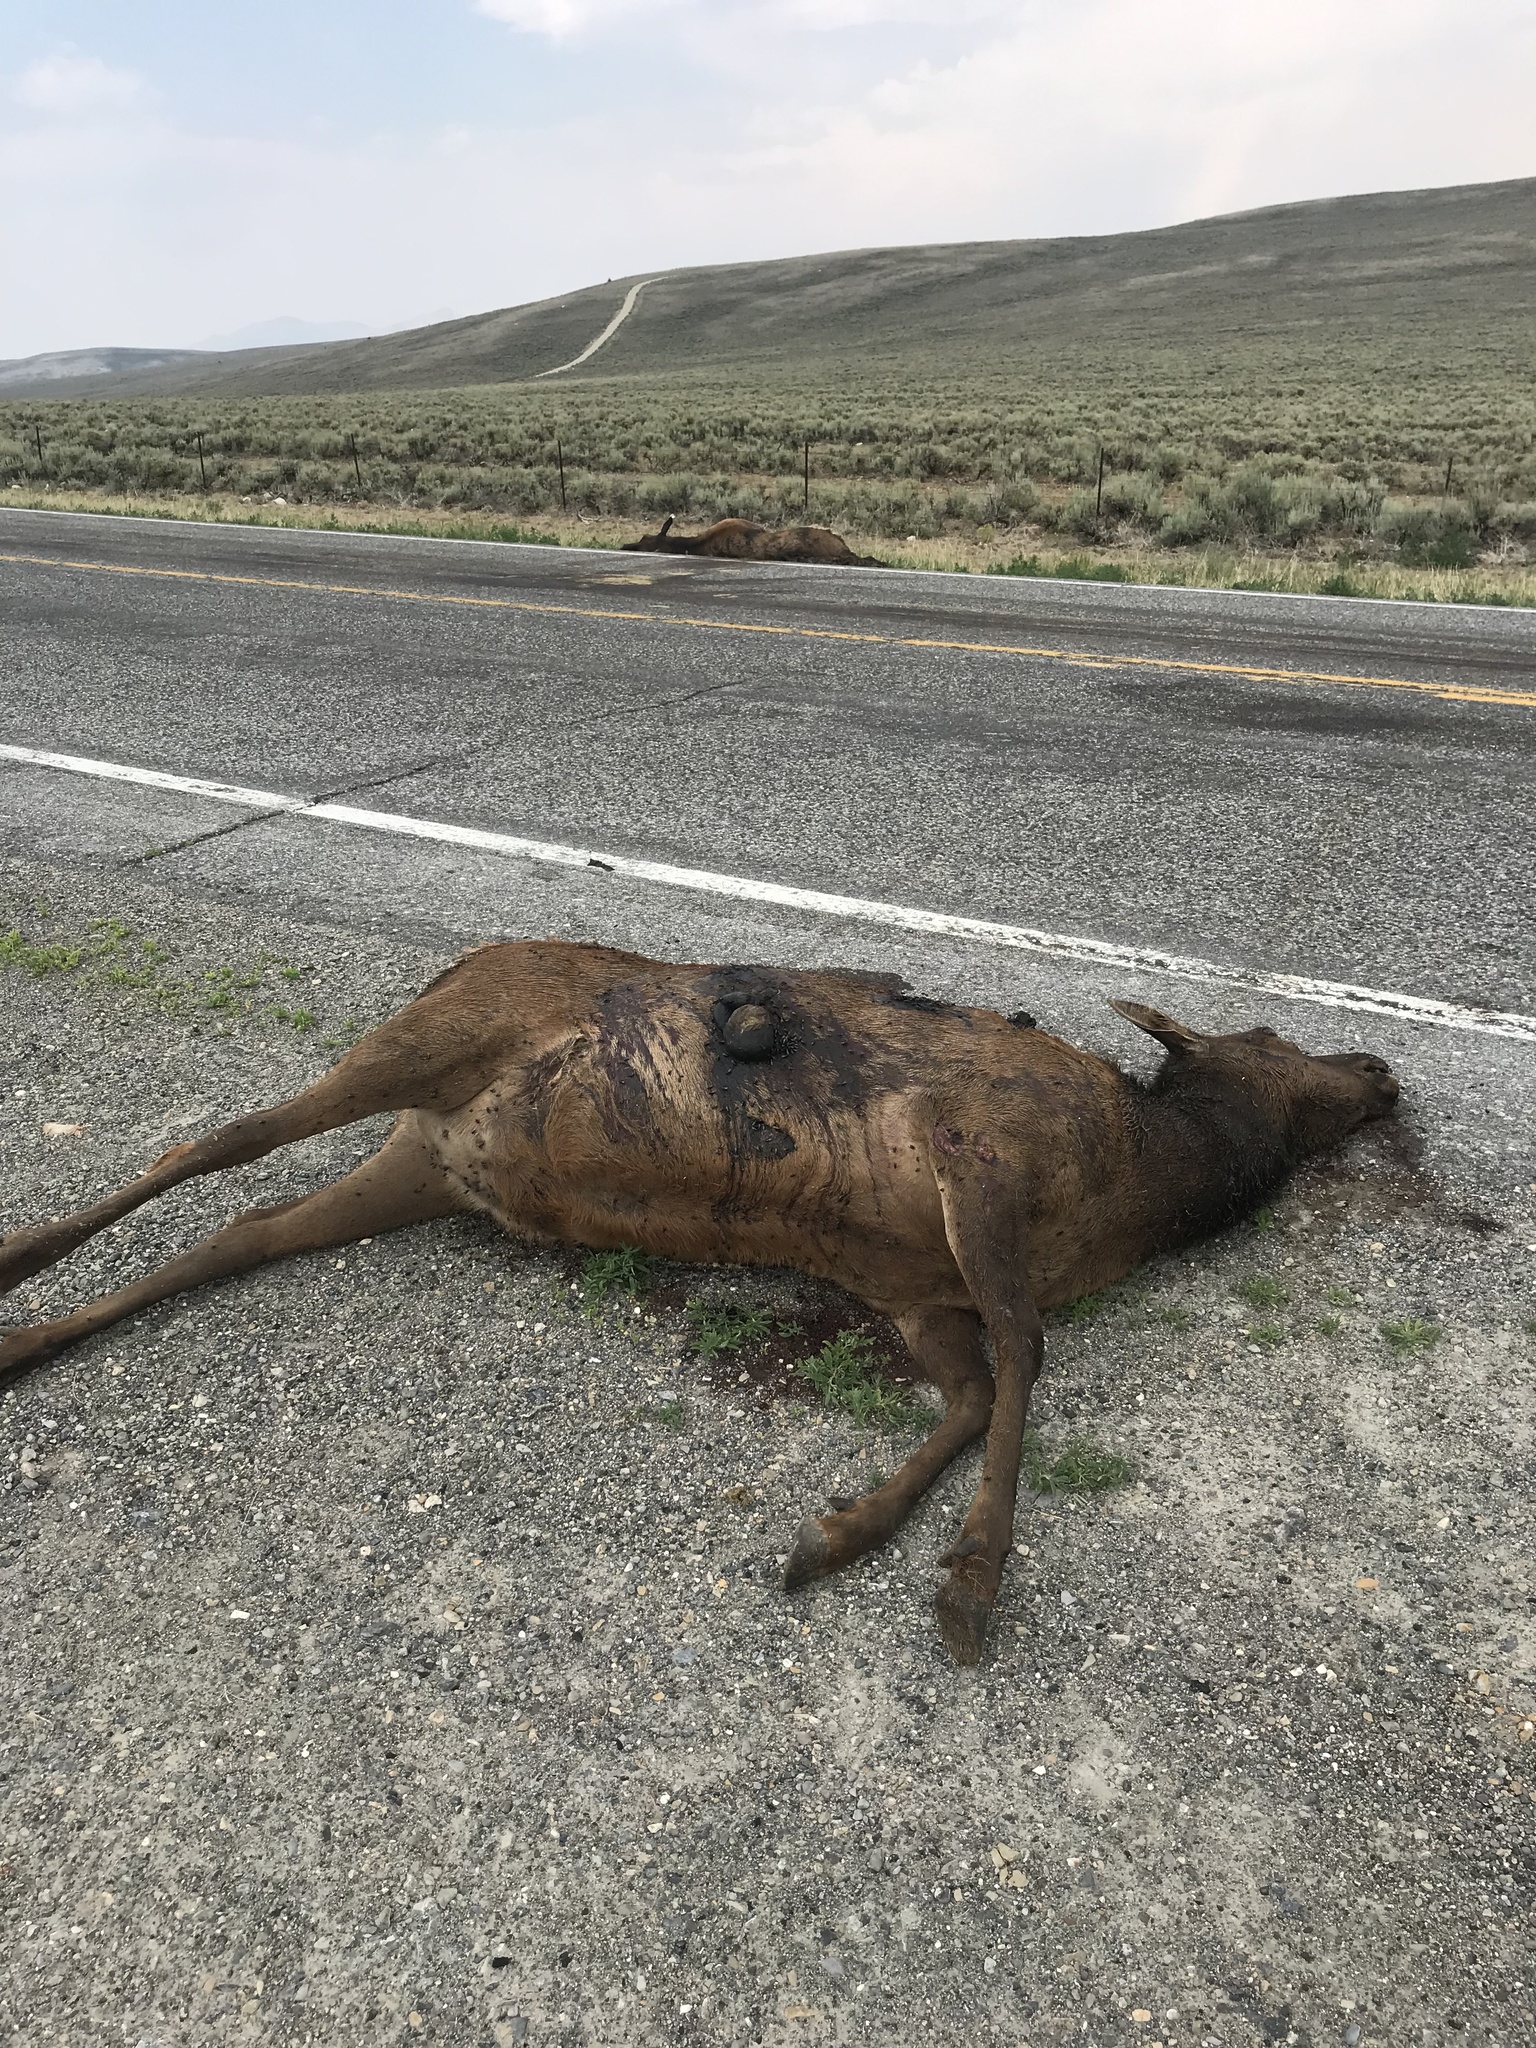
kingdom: Animalia
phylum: Chordata
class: Mammalia
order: Artiodactyla
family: Cervidae
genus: Cervus
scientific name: Cervus elaphus
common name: Red deer
